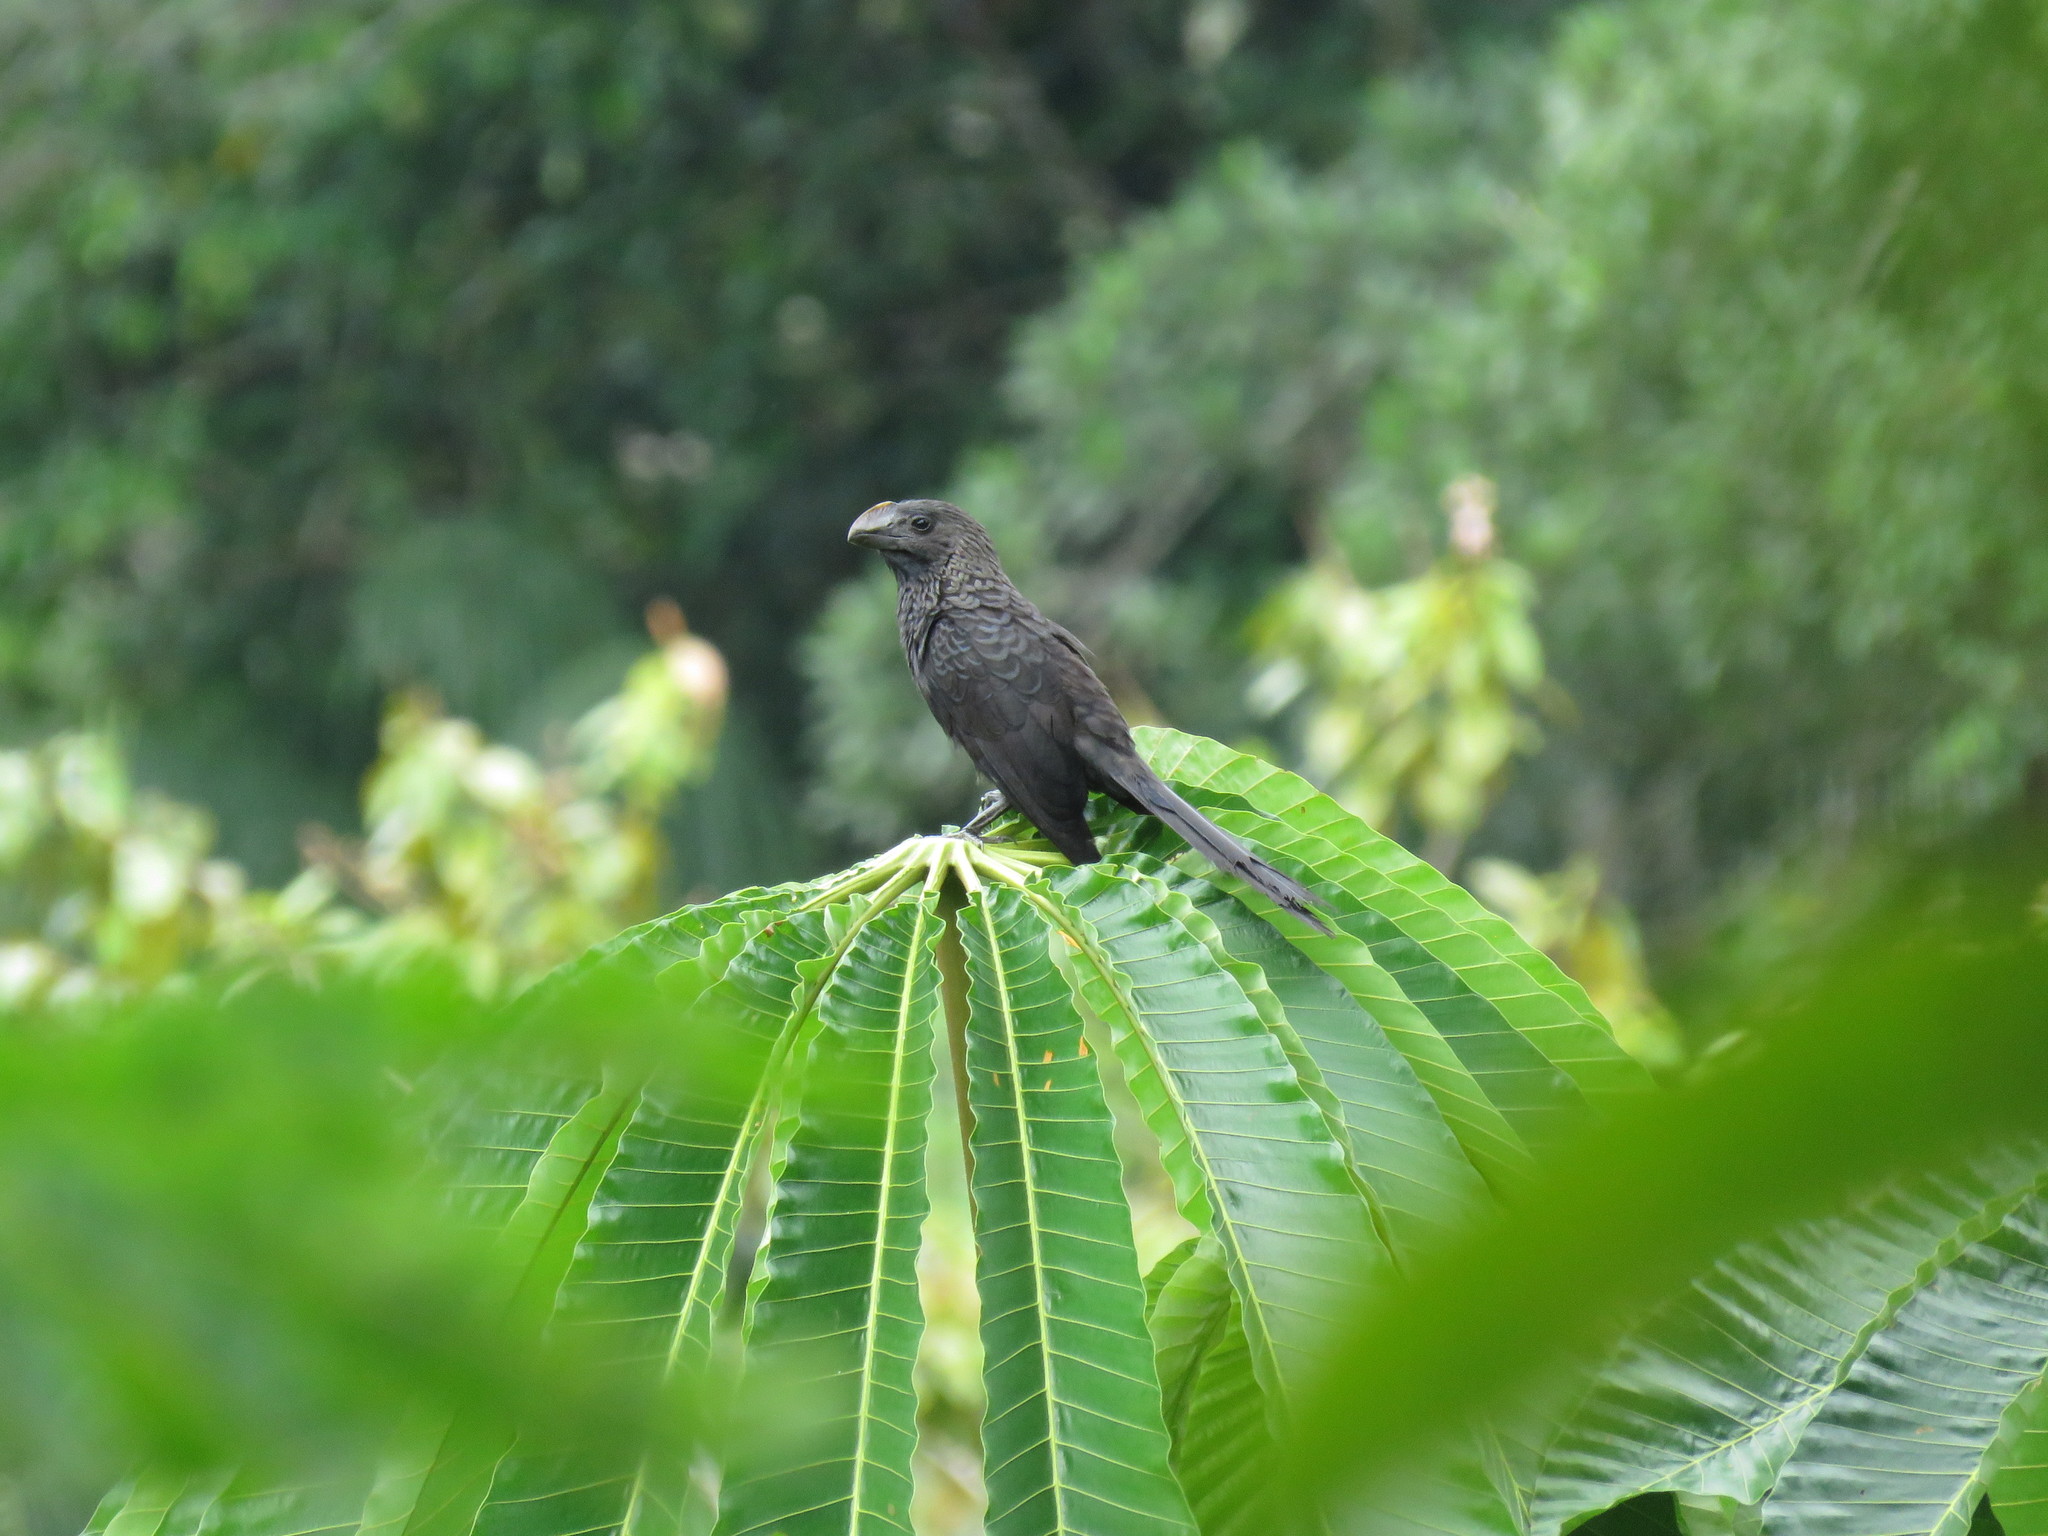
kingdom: Animalia
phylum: Chordata
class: Aves
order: Cuculiformes
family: Cuculidae
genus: Crotophaga
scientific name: Crotophaga ani
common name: Smooth-billed ani
